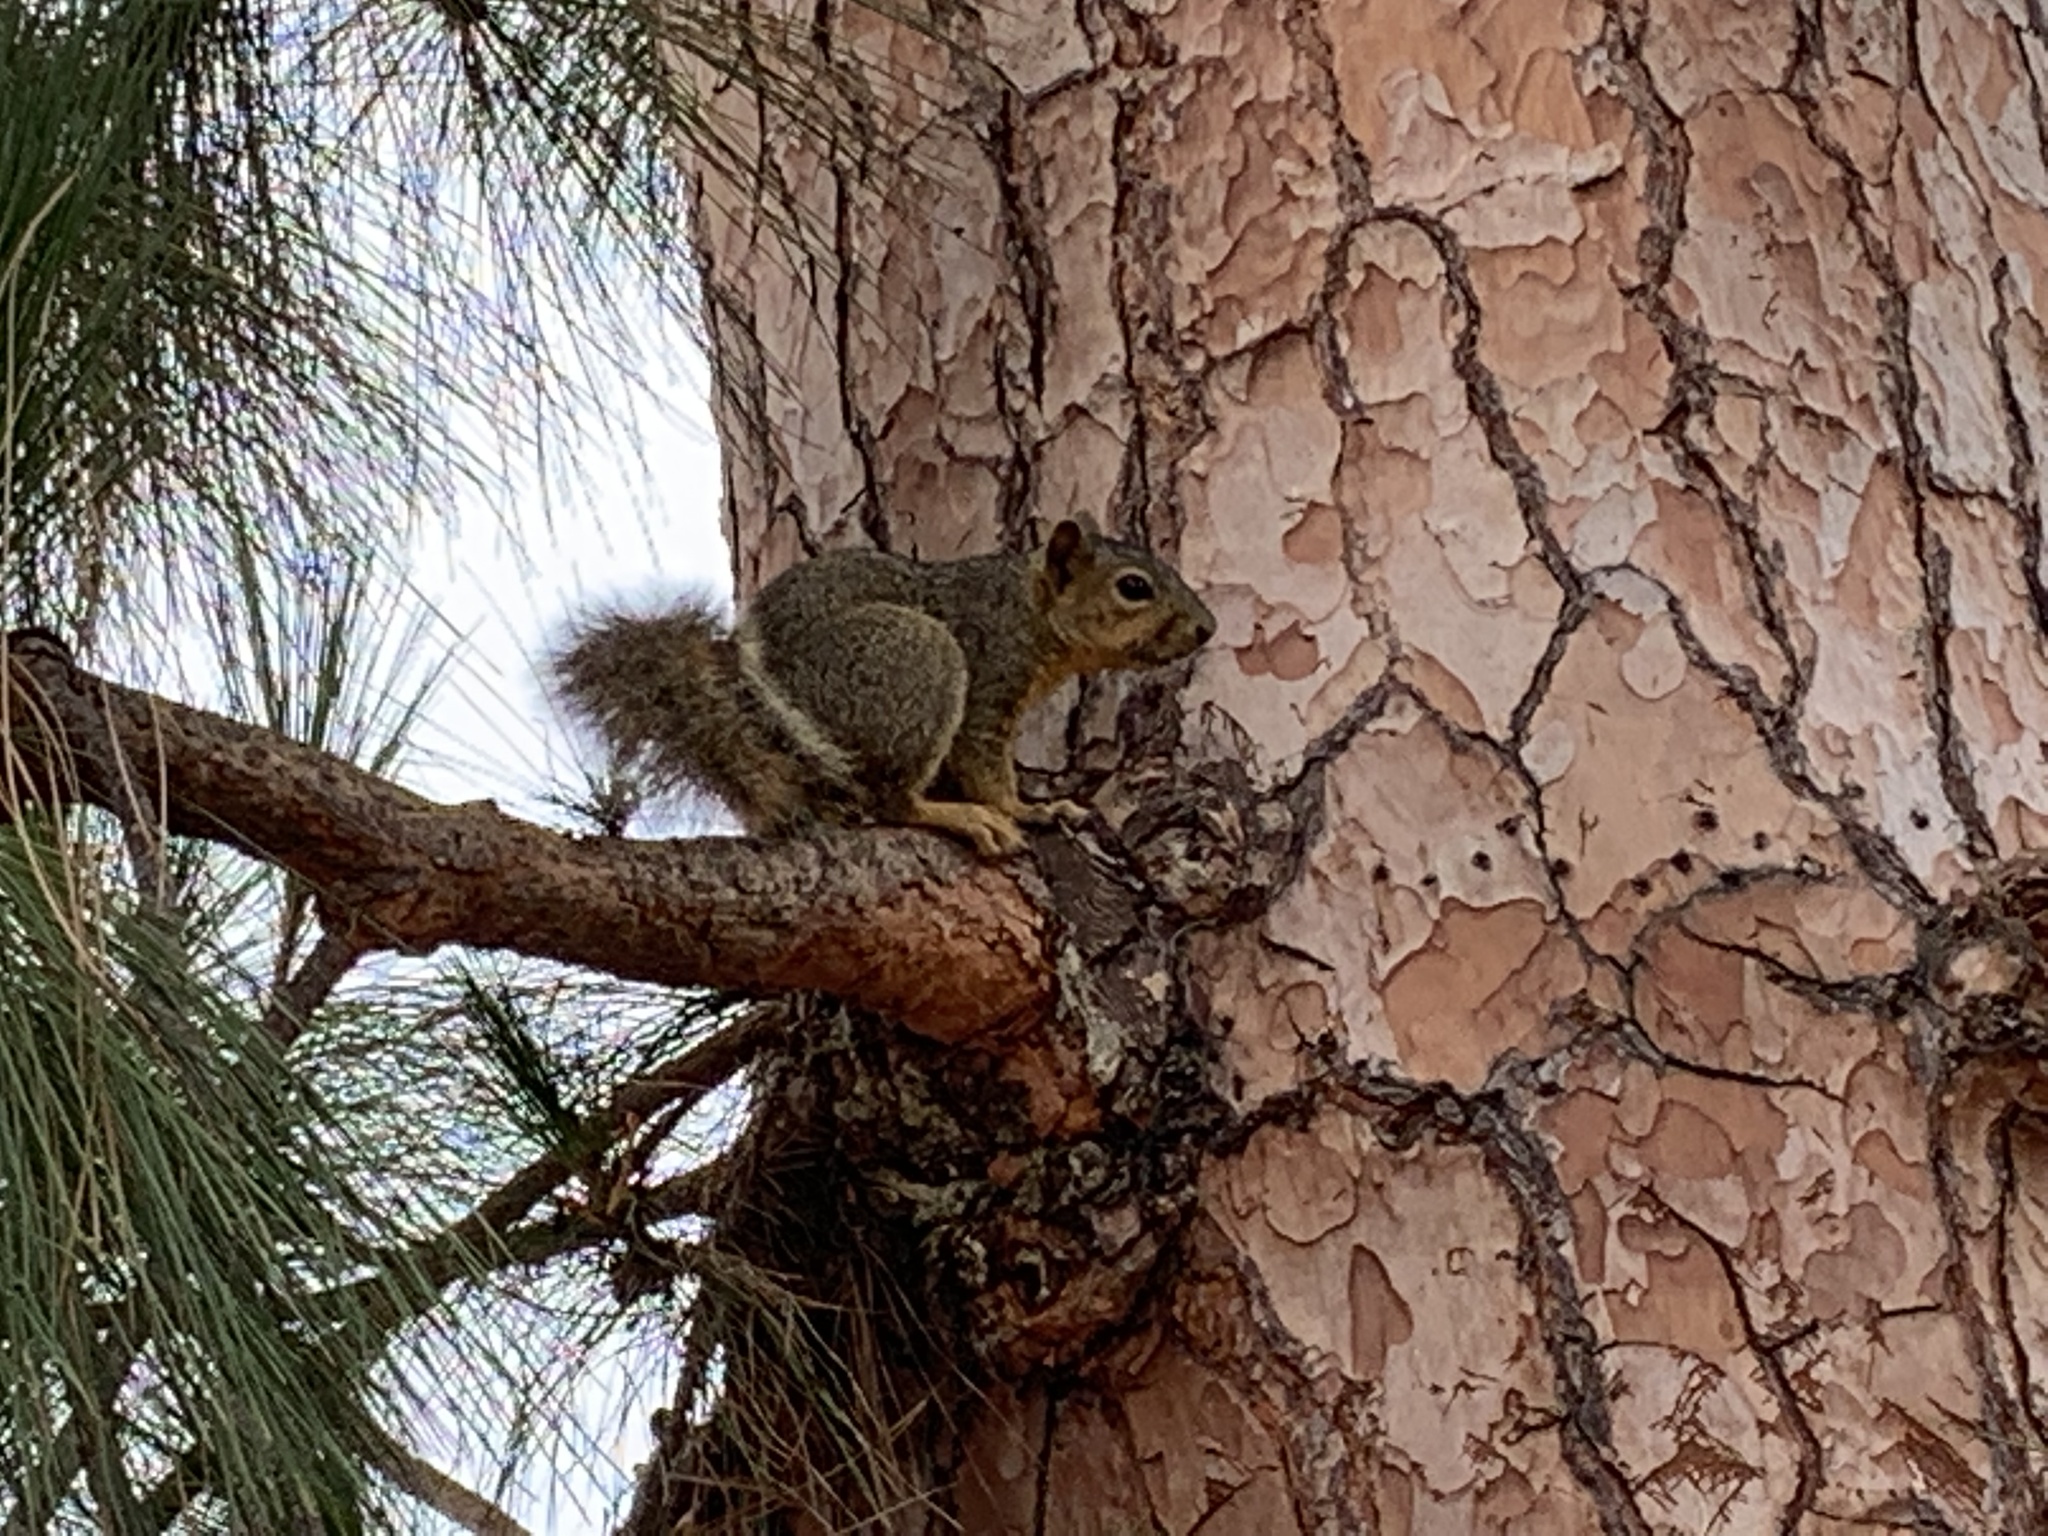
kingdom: Animalia
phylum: Chordata
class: Mammalia
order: Rodentia
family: Sciuridae
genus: Sciurus
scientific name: Sciurus niger
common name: Fox squirrel
